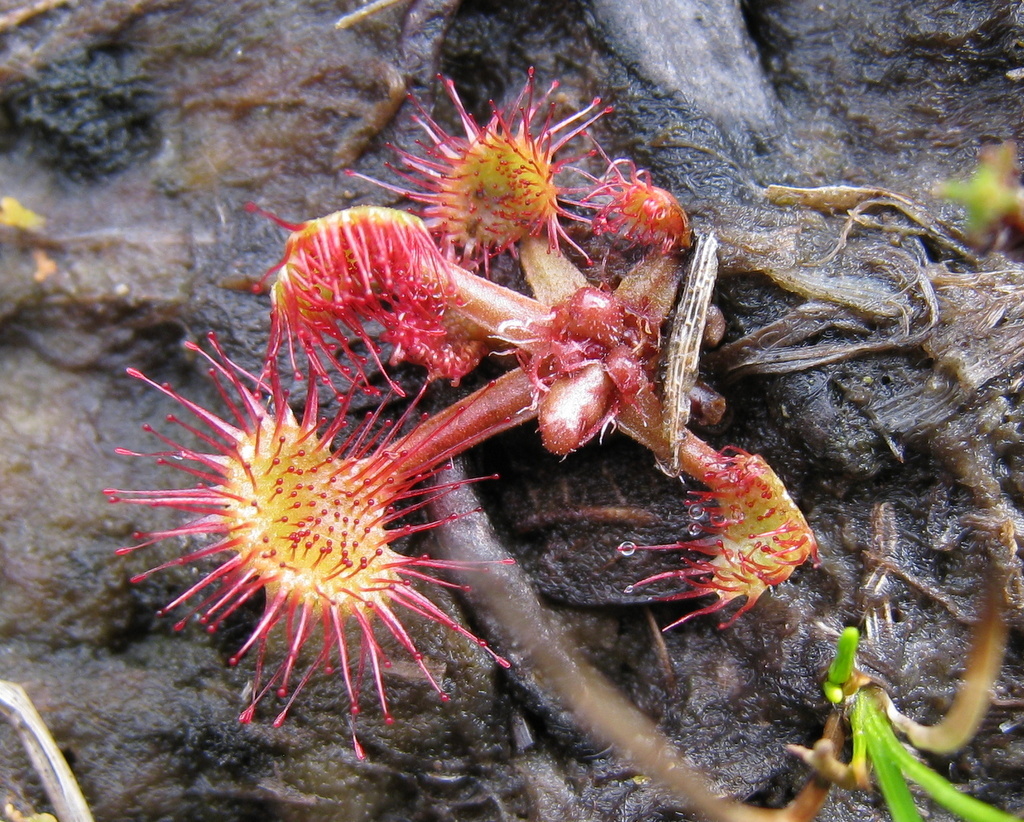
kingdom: Plantae
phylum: Tracheophyta
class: Magnoliopsida
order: Caryophyllales
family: Droseraceae
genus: Drosera
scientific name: Drosera rotundifolia
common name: Round-leaved sundew
